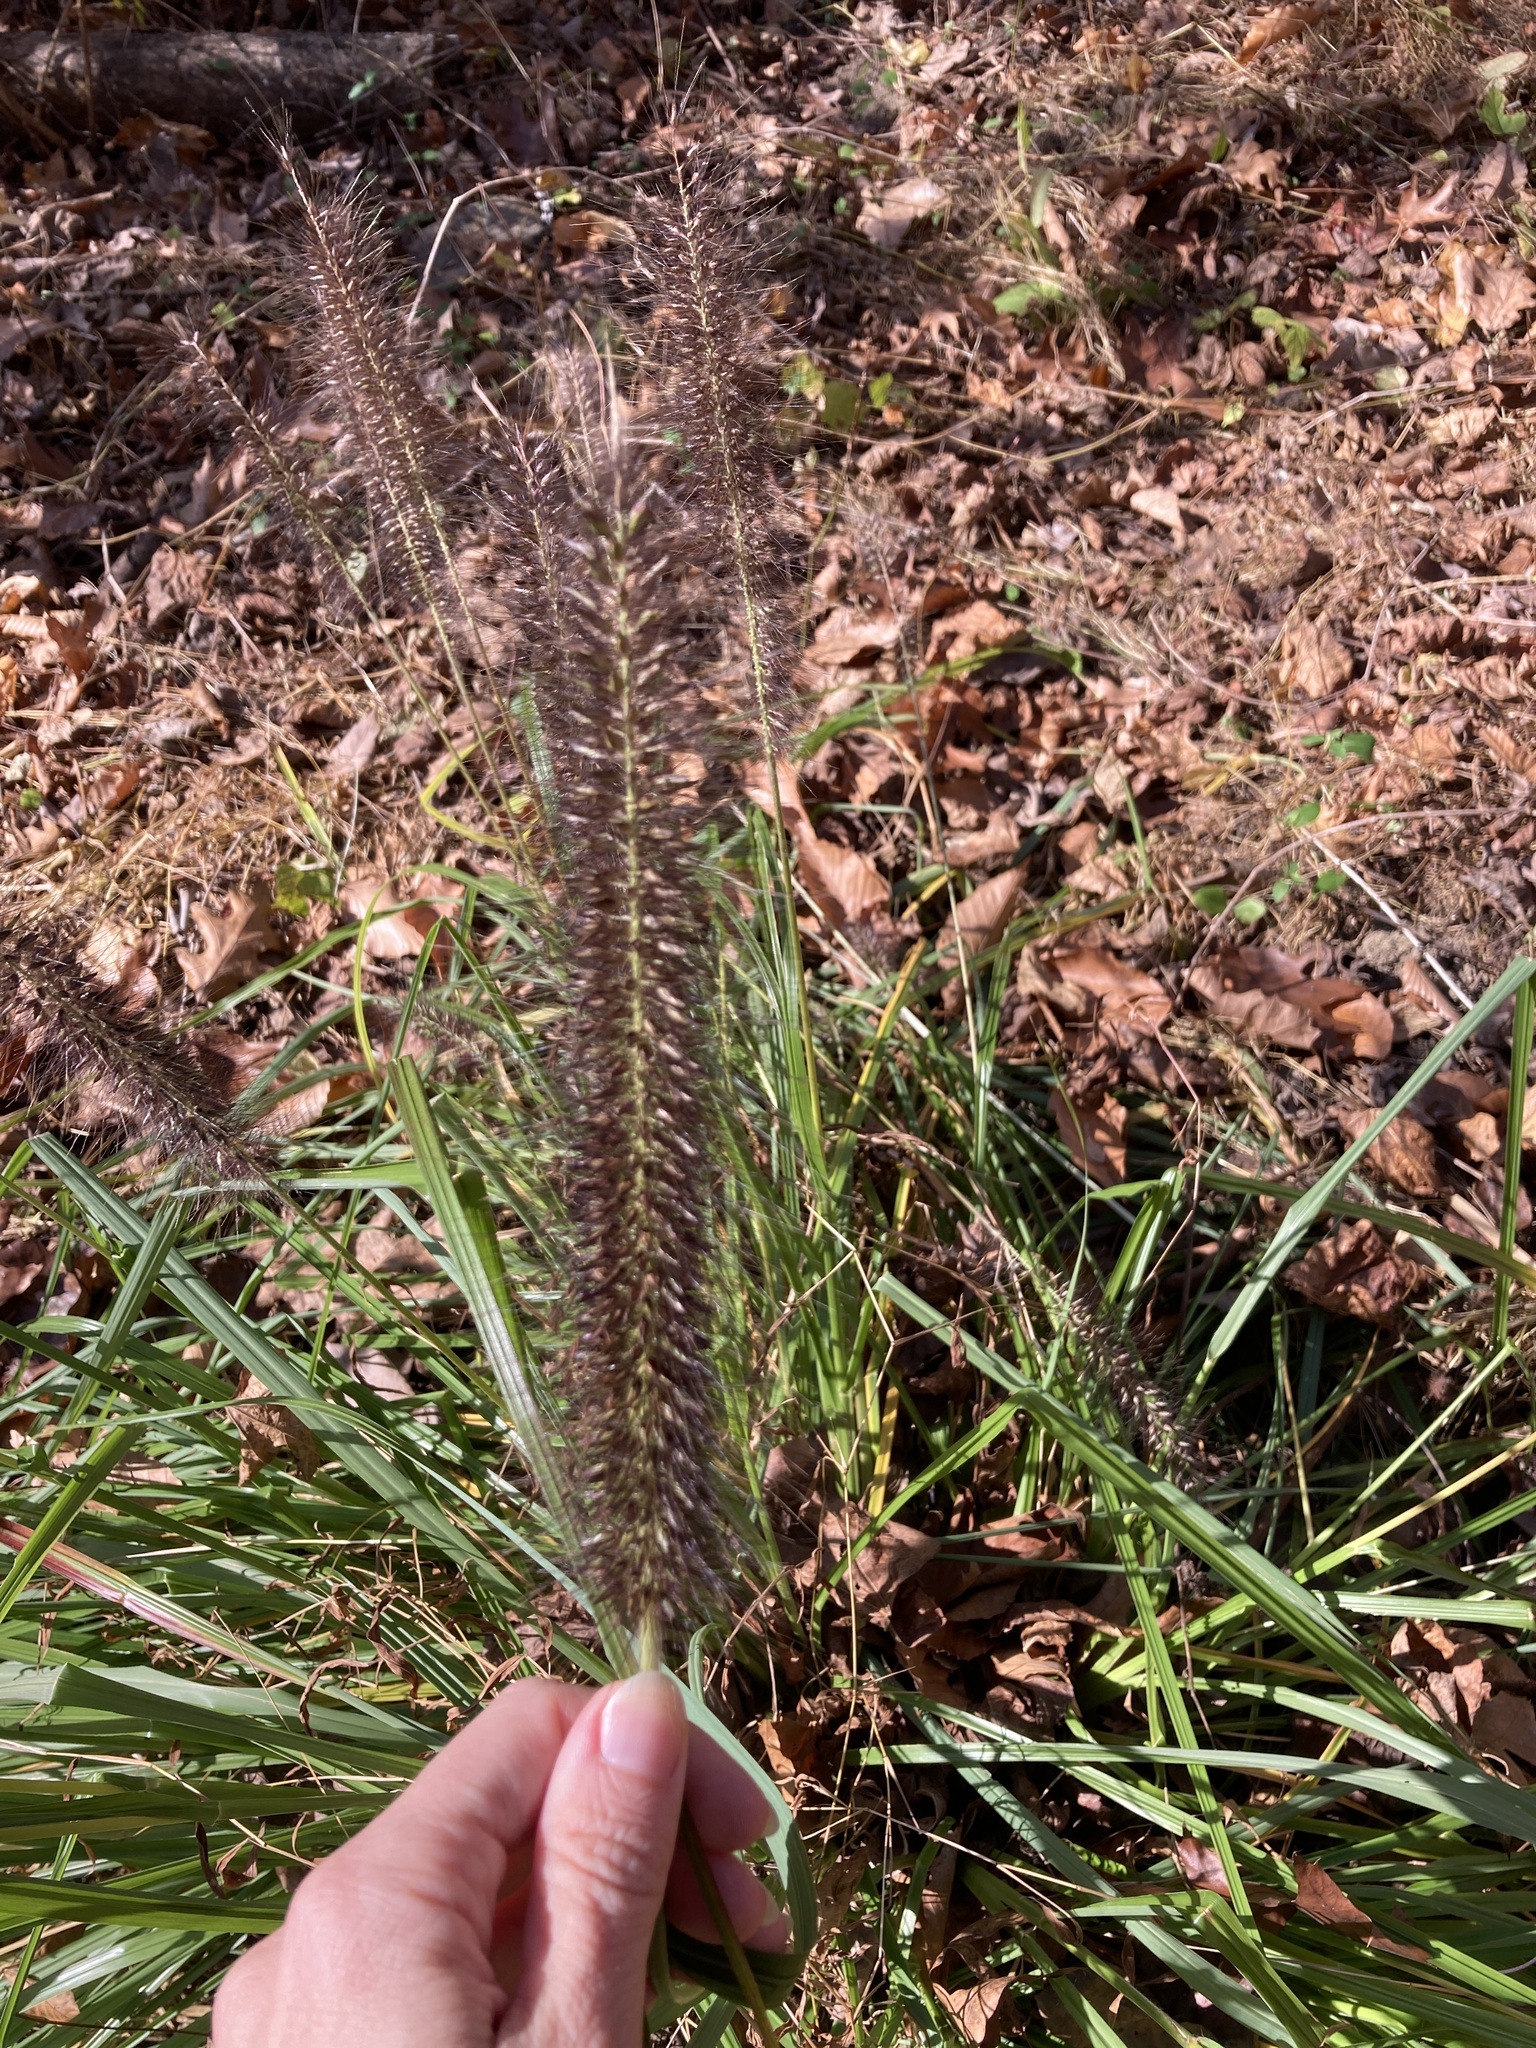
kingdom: Plantae
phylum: Tracheophyta
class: Liliopsida
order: Poales
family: Poaceae
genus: Cenchrus
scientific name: Cenchrus alopecuroides
